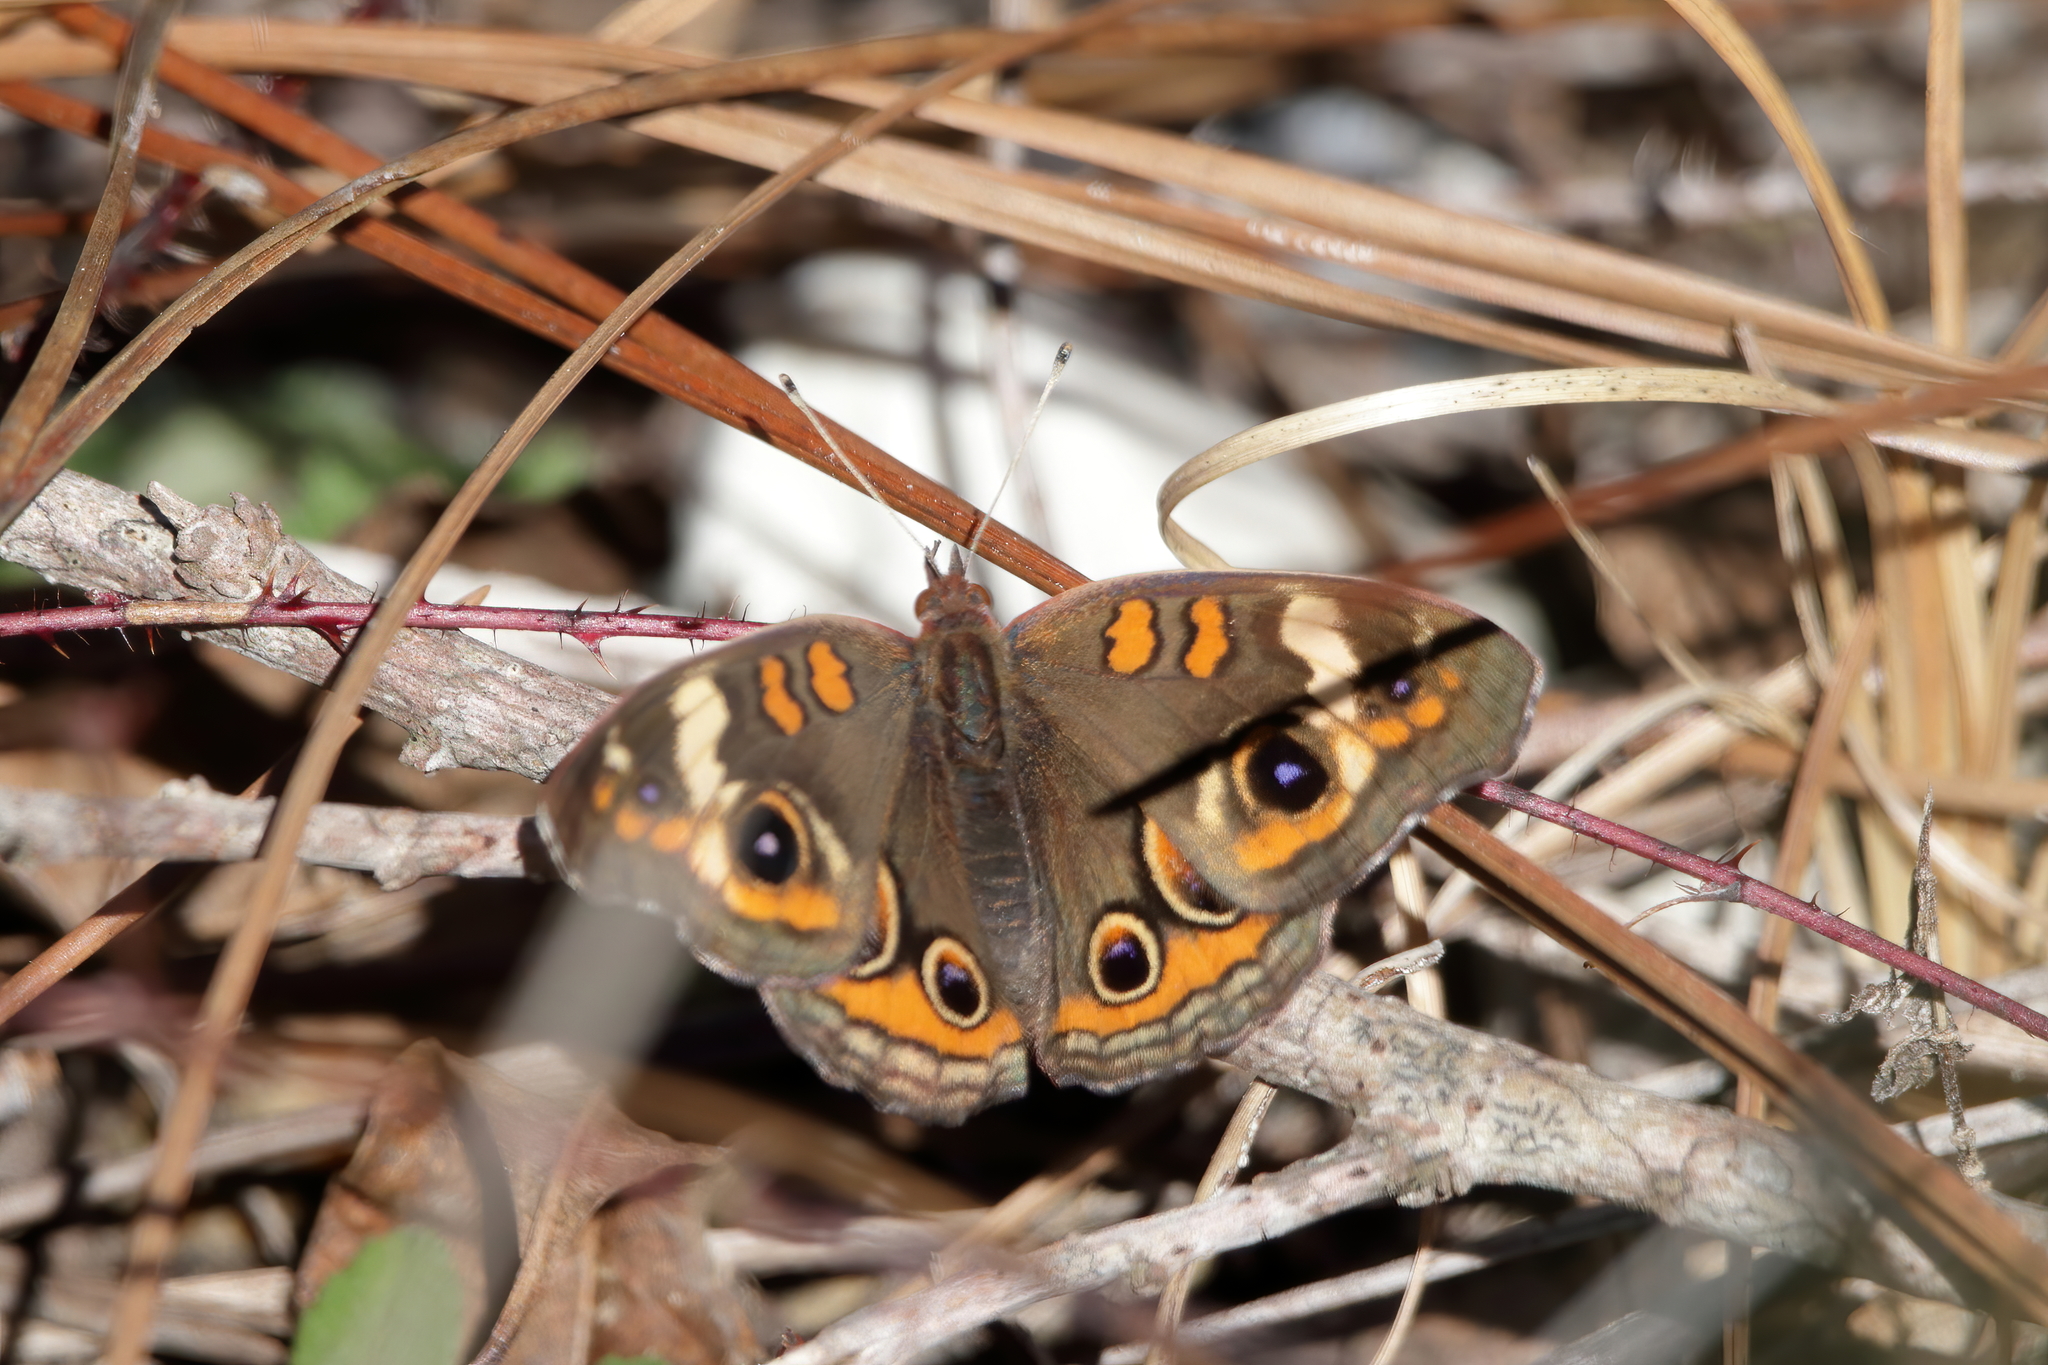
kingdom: Animalia
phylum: Arthropoda
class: Insecta
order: Lepidoptera
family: Nymphalidae
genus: Junonia
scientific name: Junonia coenia
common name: Common buckeye
